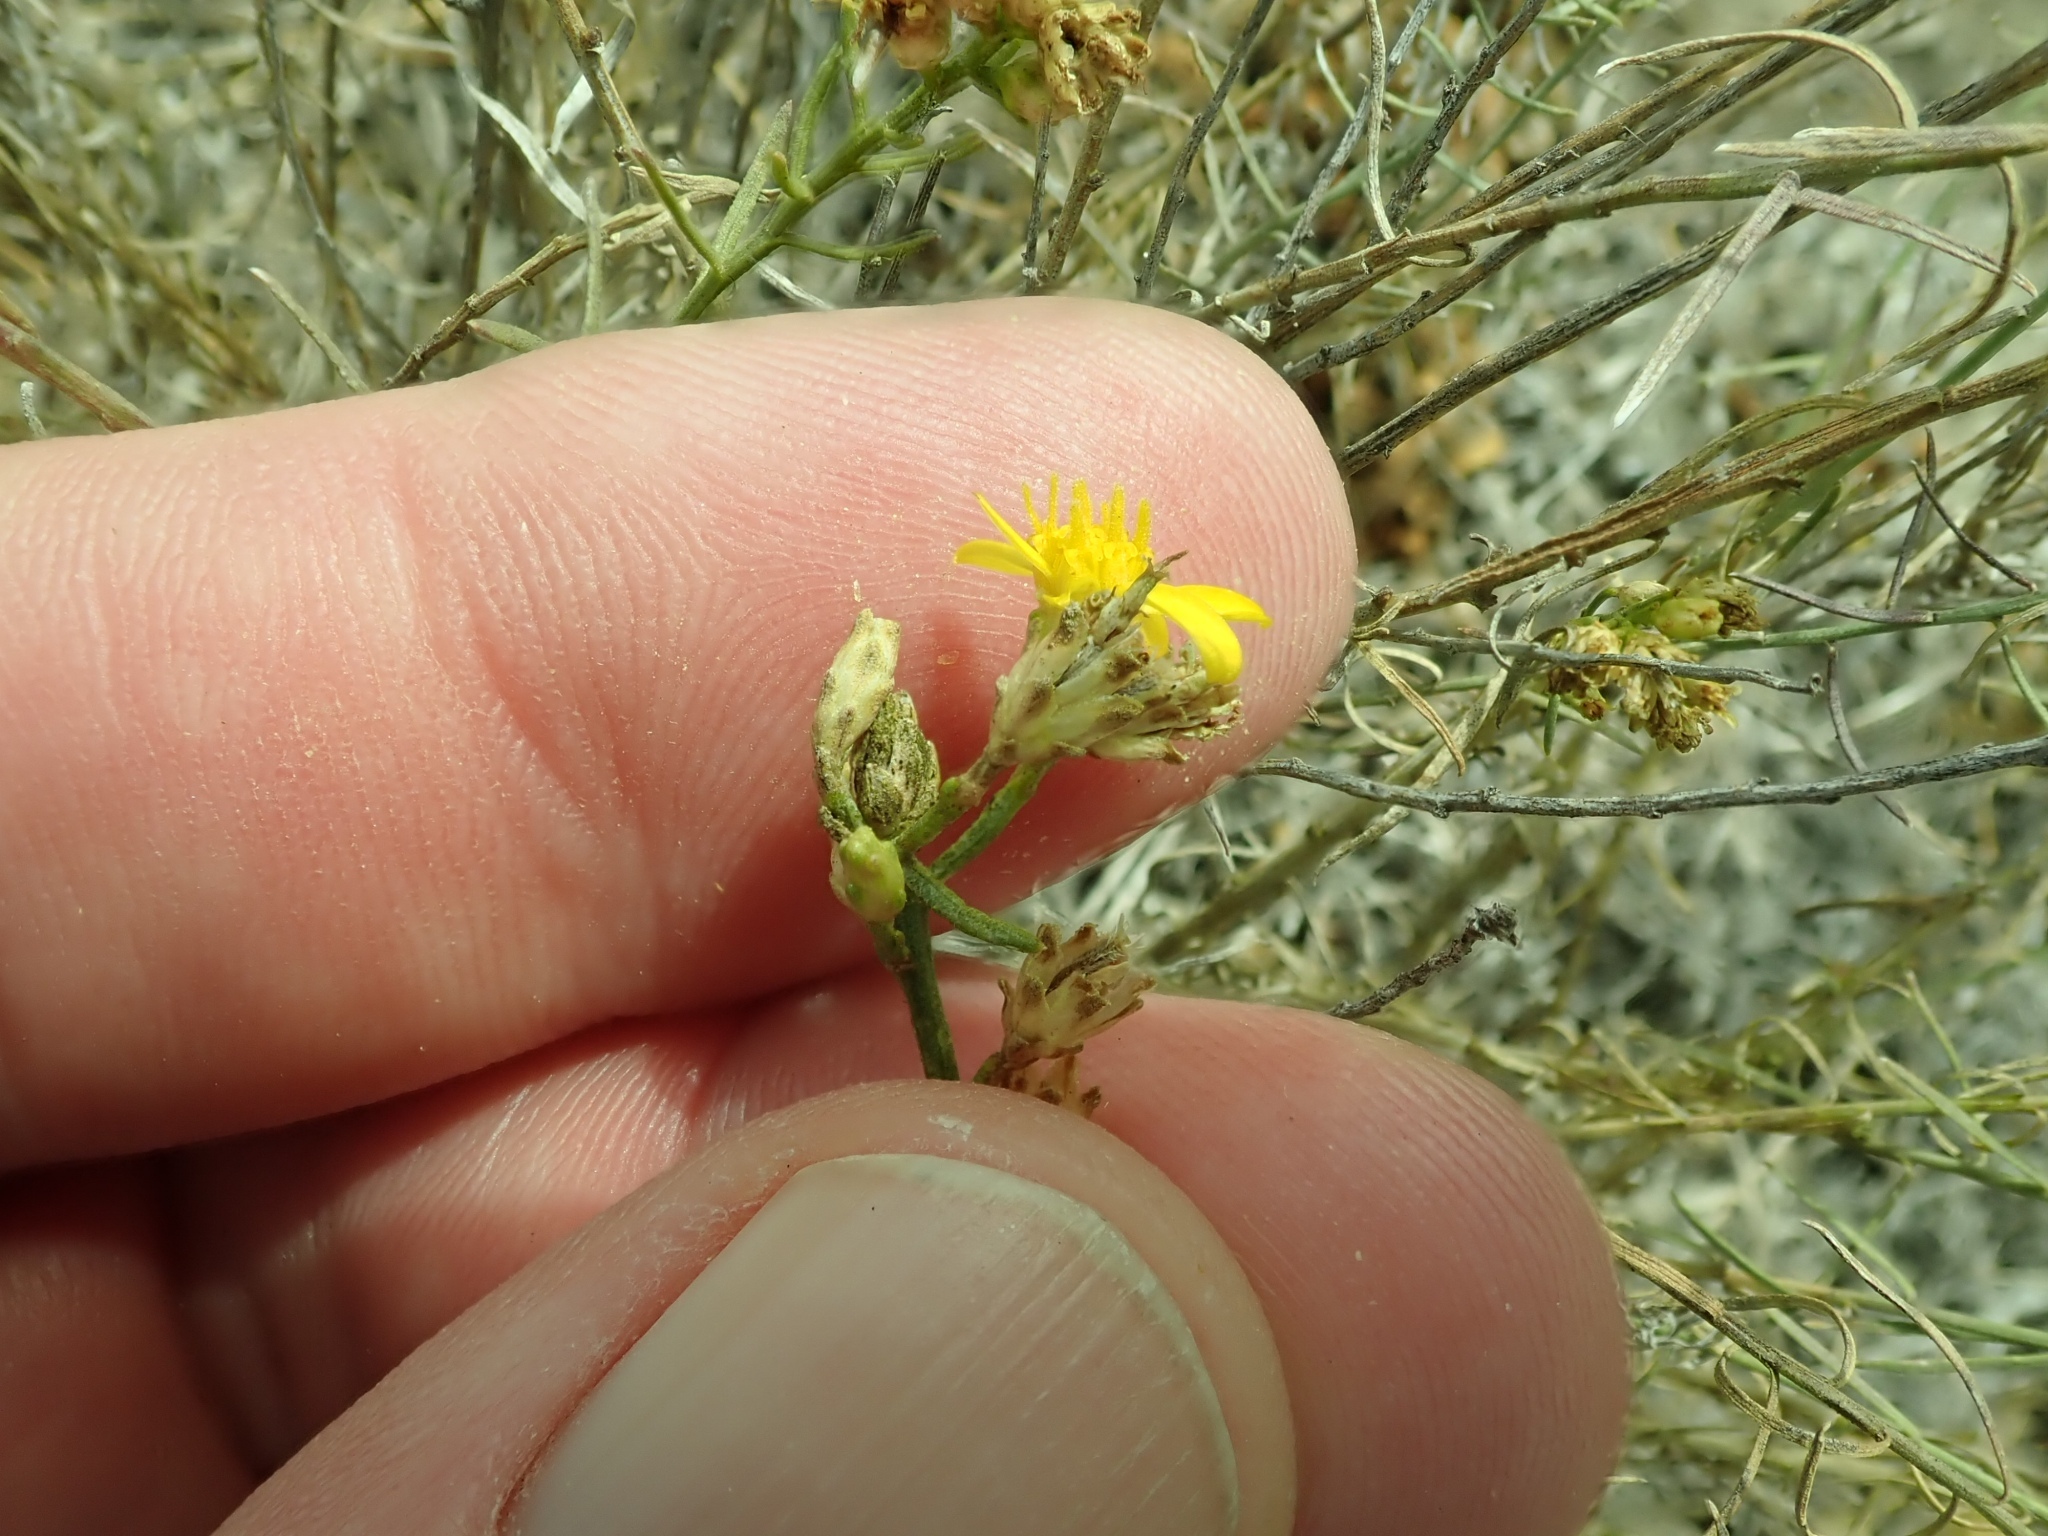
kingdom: Plantae
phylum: Tracheophyta
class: Magnoliopsida
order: Asterales
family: Asteraceae
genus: Gutierrezia
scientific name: Gutierrezia californica
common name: California matchweed
